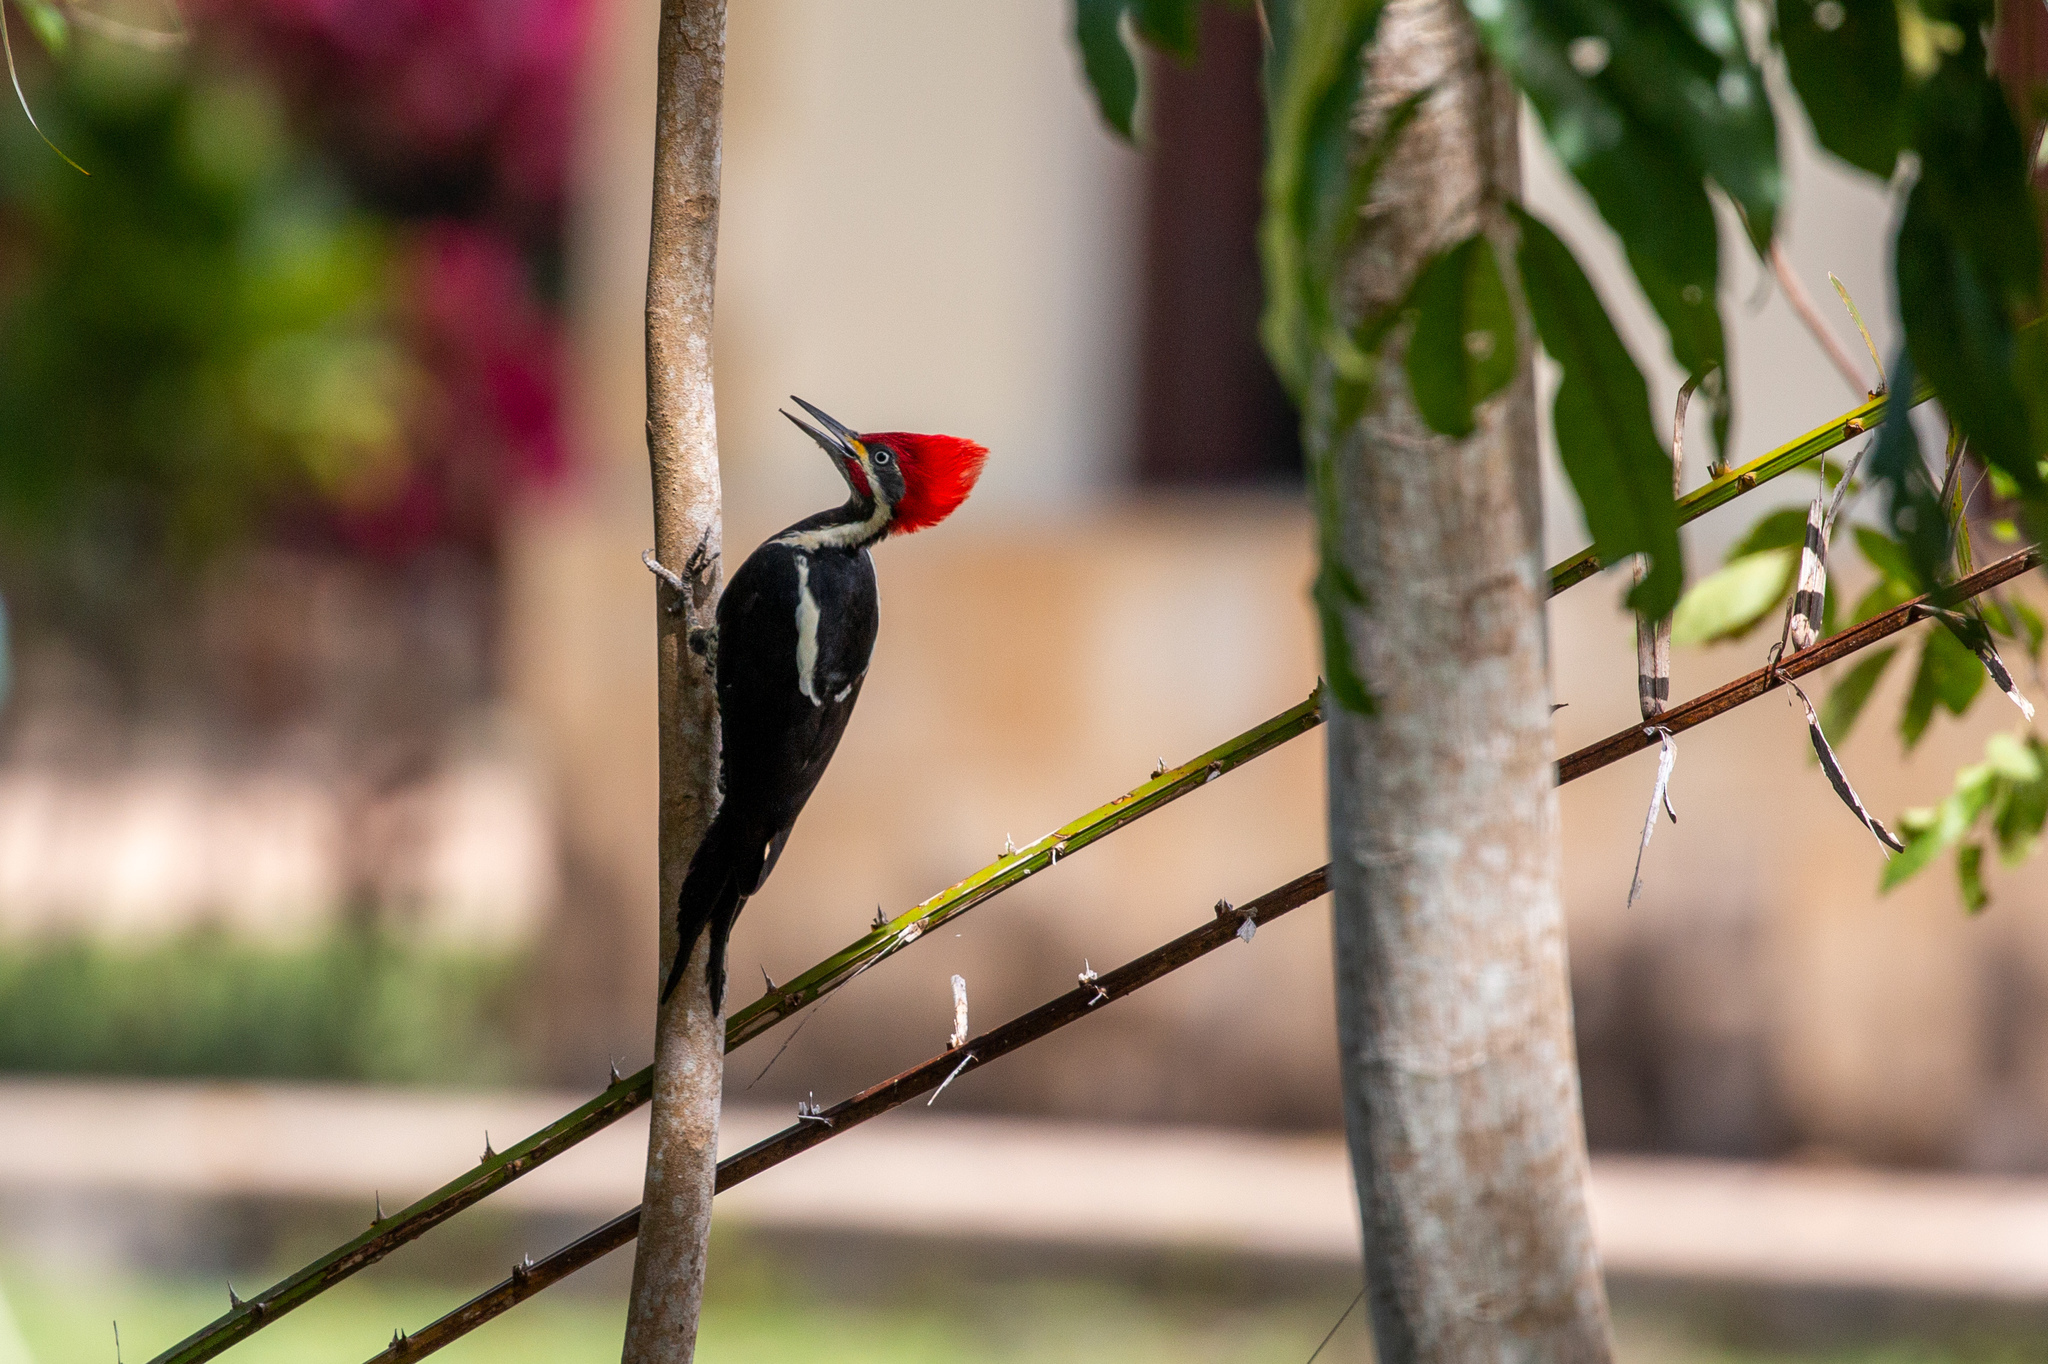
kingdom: Animalia
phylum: Chordata
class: Aves
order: Piciformes
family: Picidae
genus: Dryocopus
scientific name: Dryocopus lineatus
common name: Lineated woodpecker
